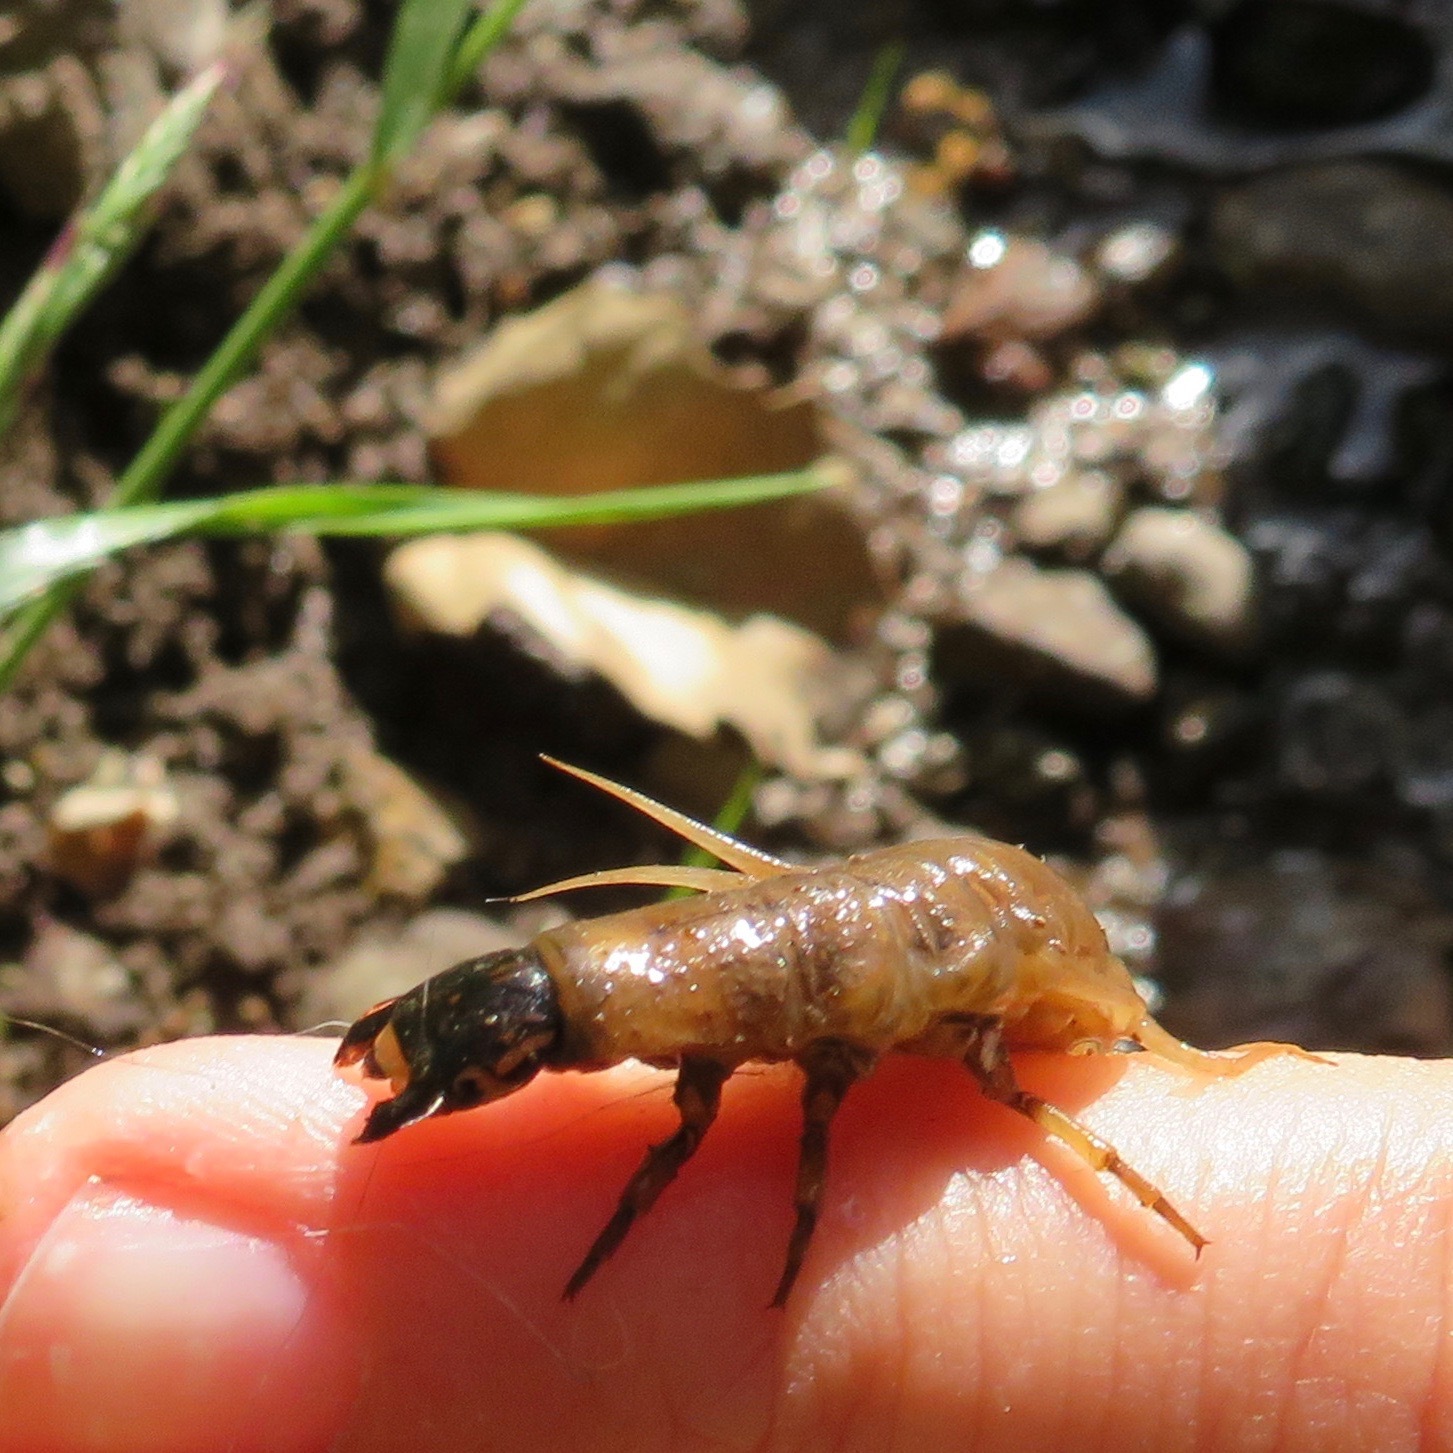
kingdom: Animalia
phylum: Arthropoda
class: Insecta
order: Megaloptera
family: Corydalidae
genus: Neohermes
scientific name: Neohermes filicornis
